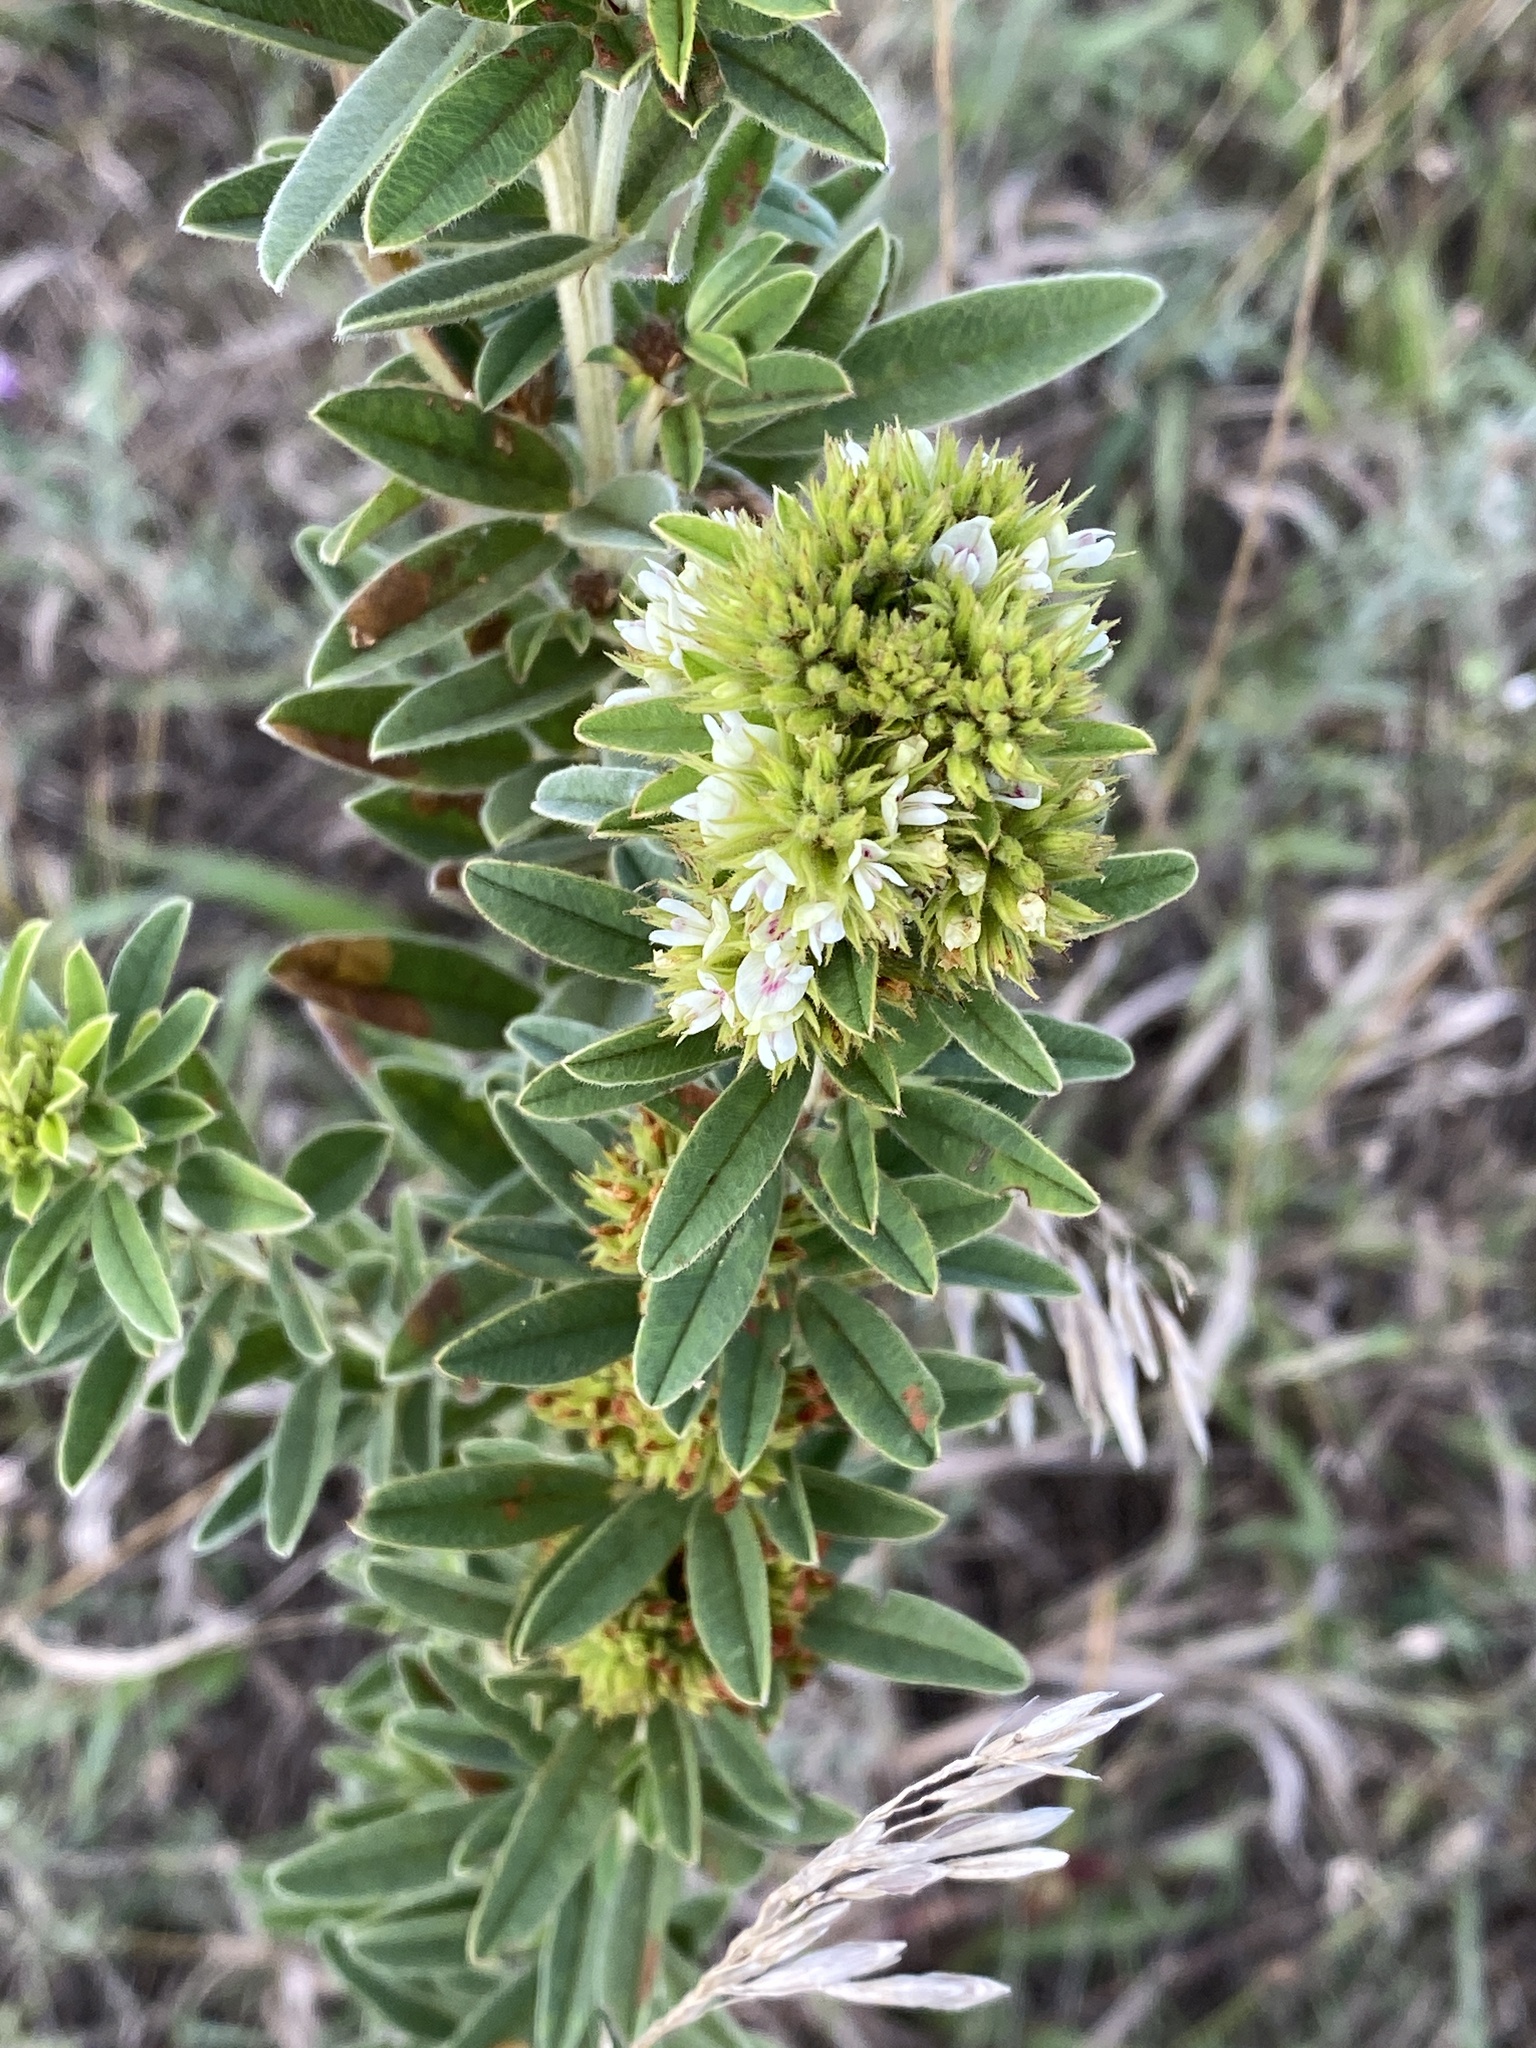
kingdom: Plantae
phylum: Tracheophyta
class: Magnoliopsida
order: Fabales
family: Fabaceae
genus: Lespedeza
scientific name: Lespedeza capitata
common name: Dusty clover
